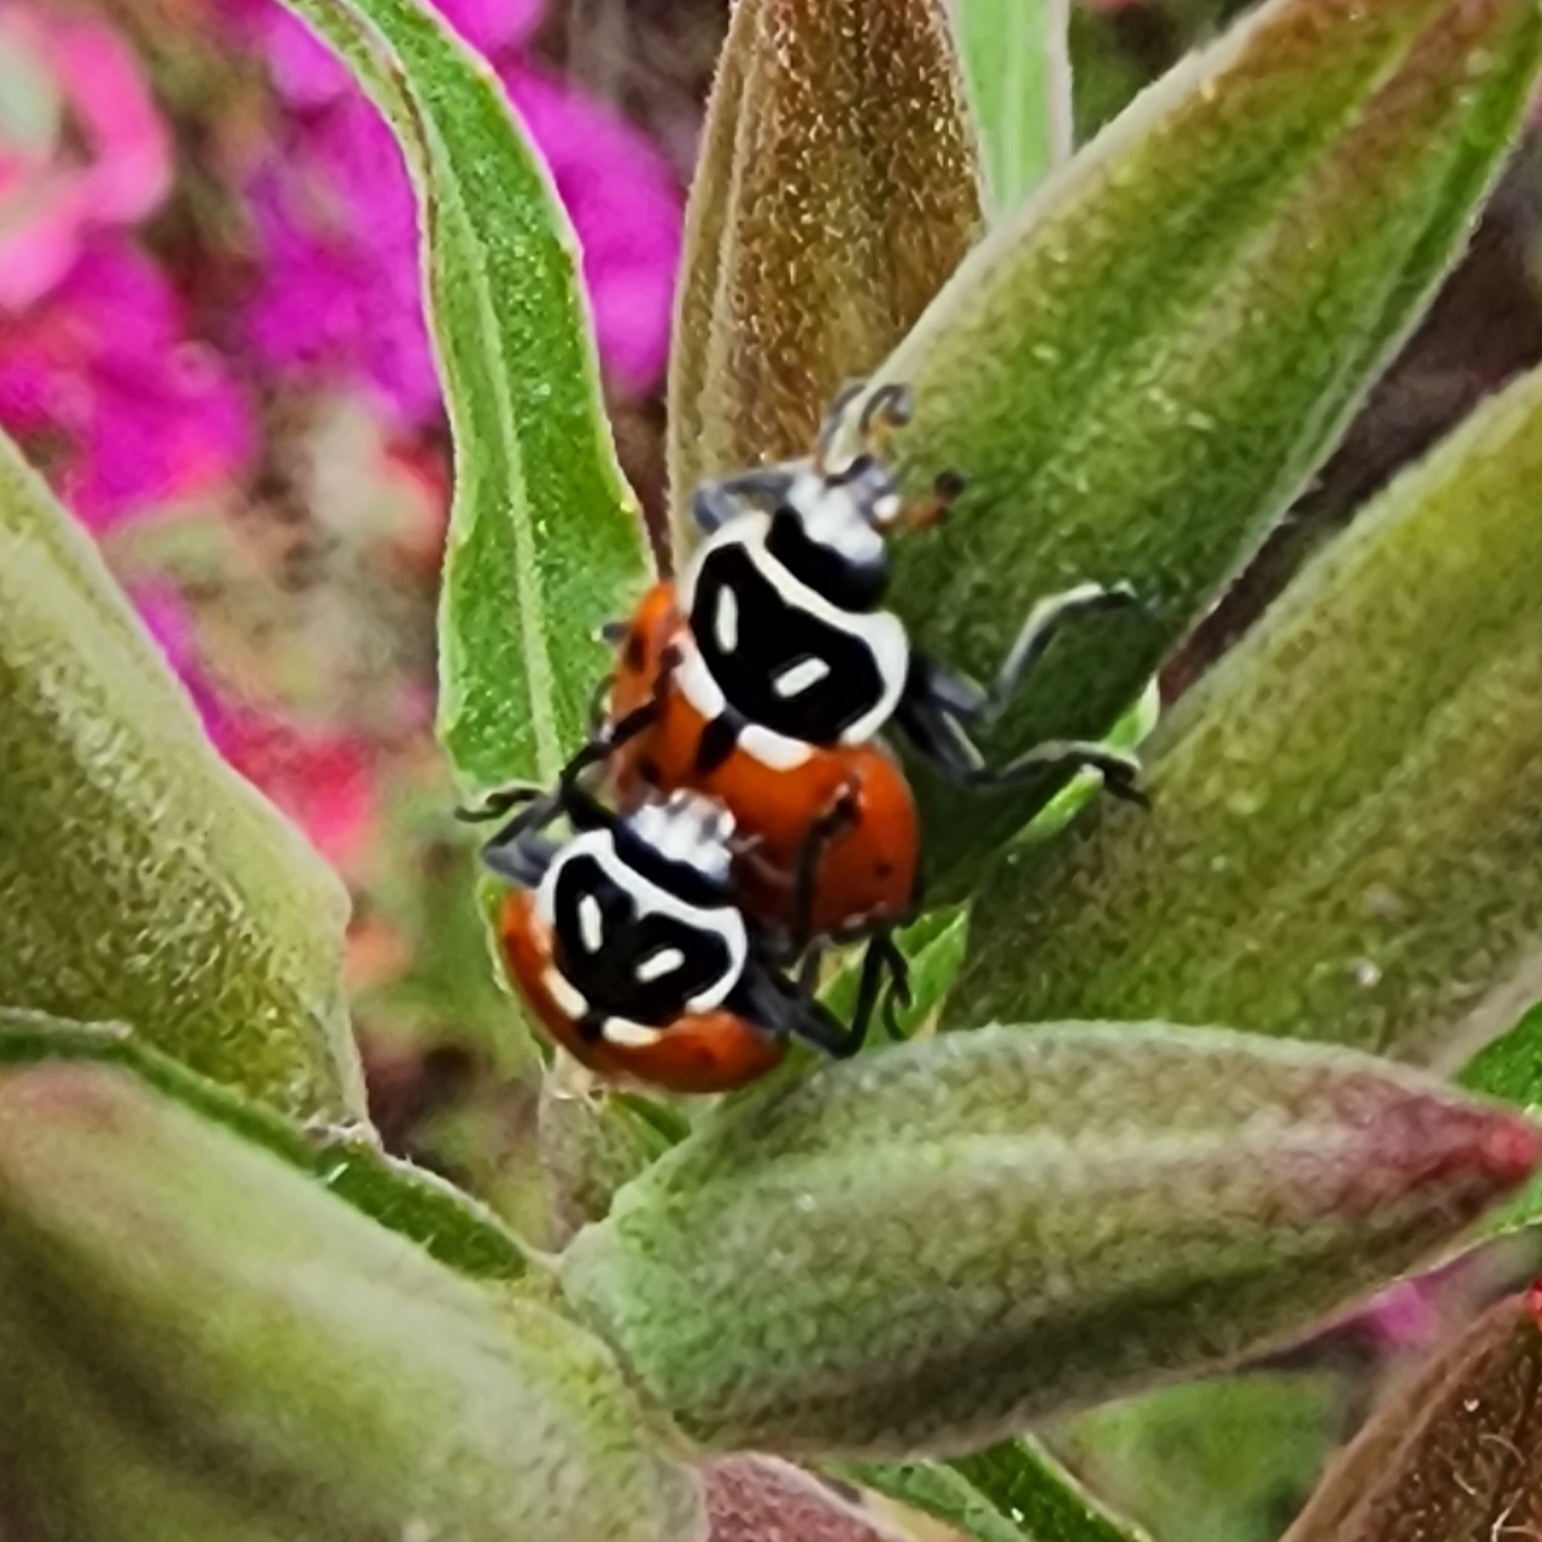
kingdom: Animalia
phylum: Arthropoda
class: Insecta
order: Coleoptera
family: Coccinellidae
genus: Hippodamia
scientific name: Hippodamia convergens
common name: Convergent lady beetle
